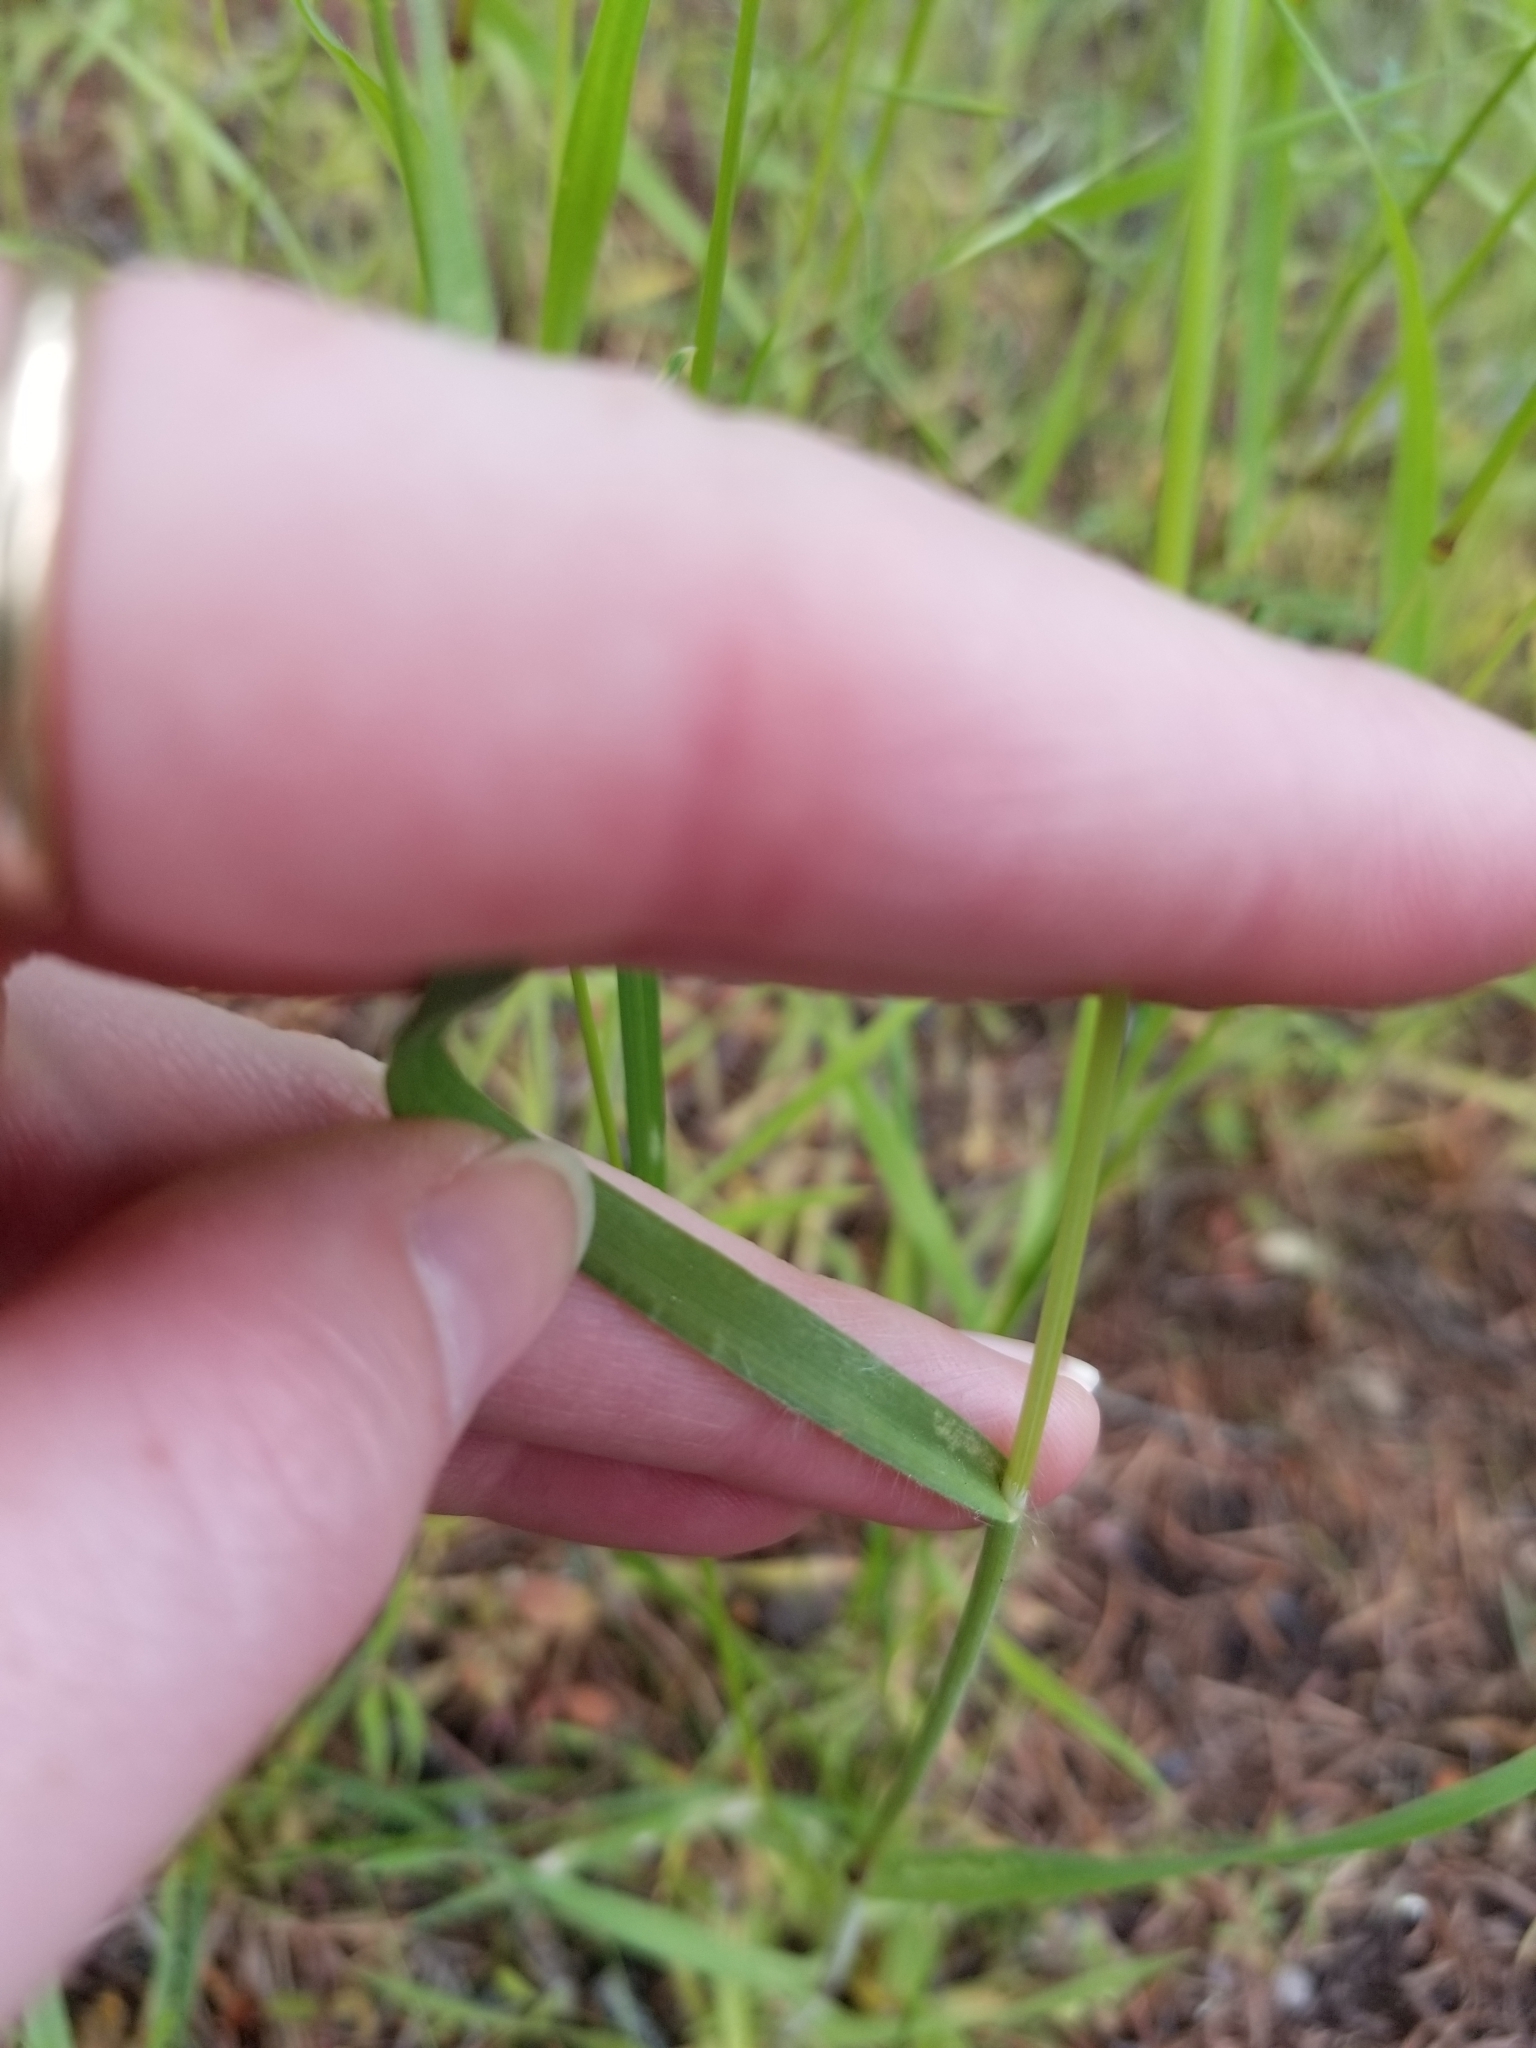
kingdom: Plantae
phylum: Tracheophyta
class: Liliopsida
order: Poales
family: Poaceae
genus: Bromus
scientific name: Bromus tectorum
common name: Cheatgrass
